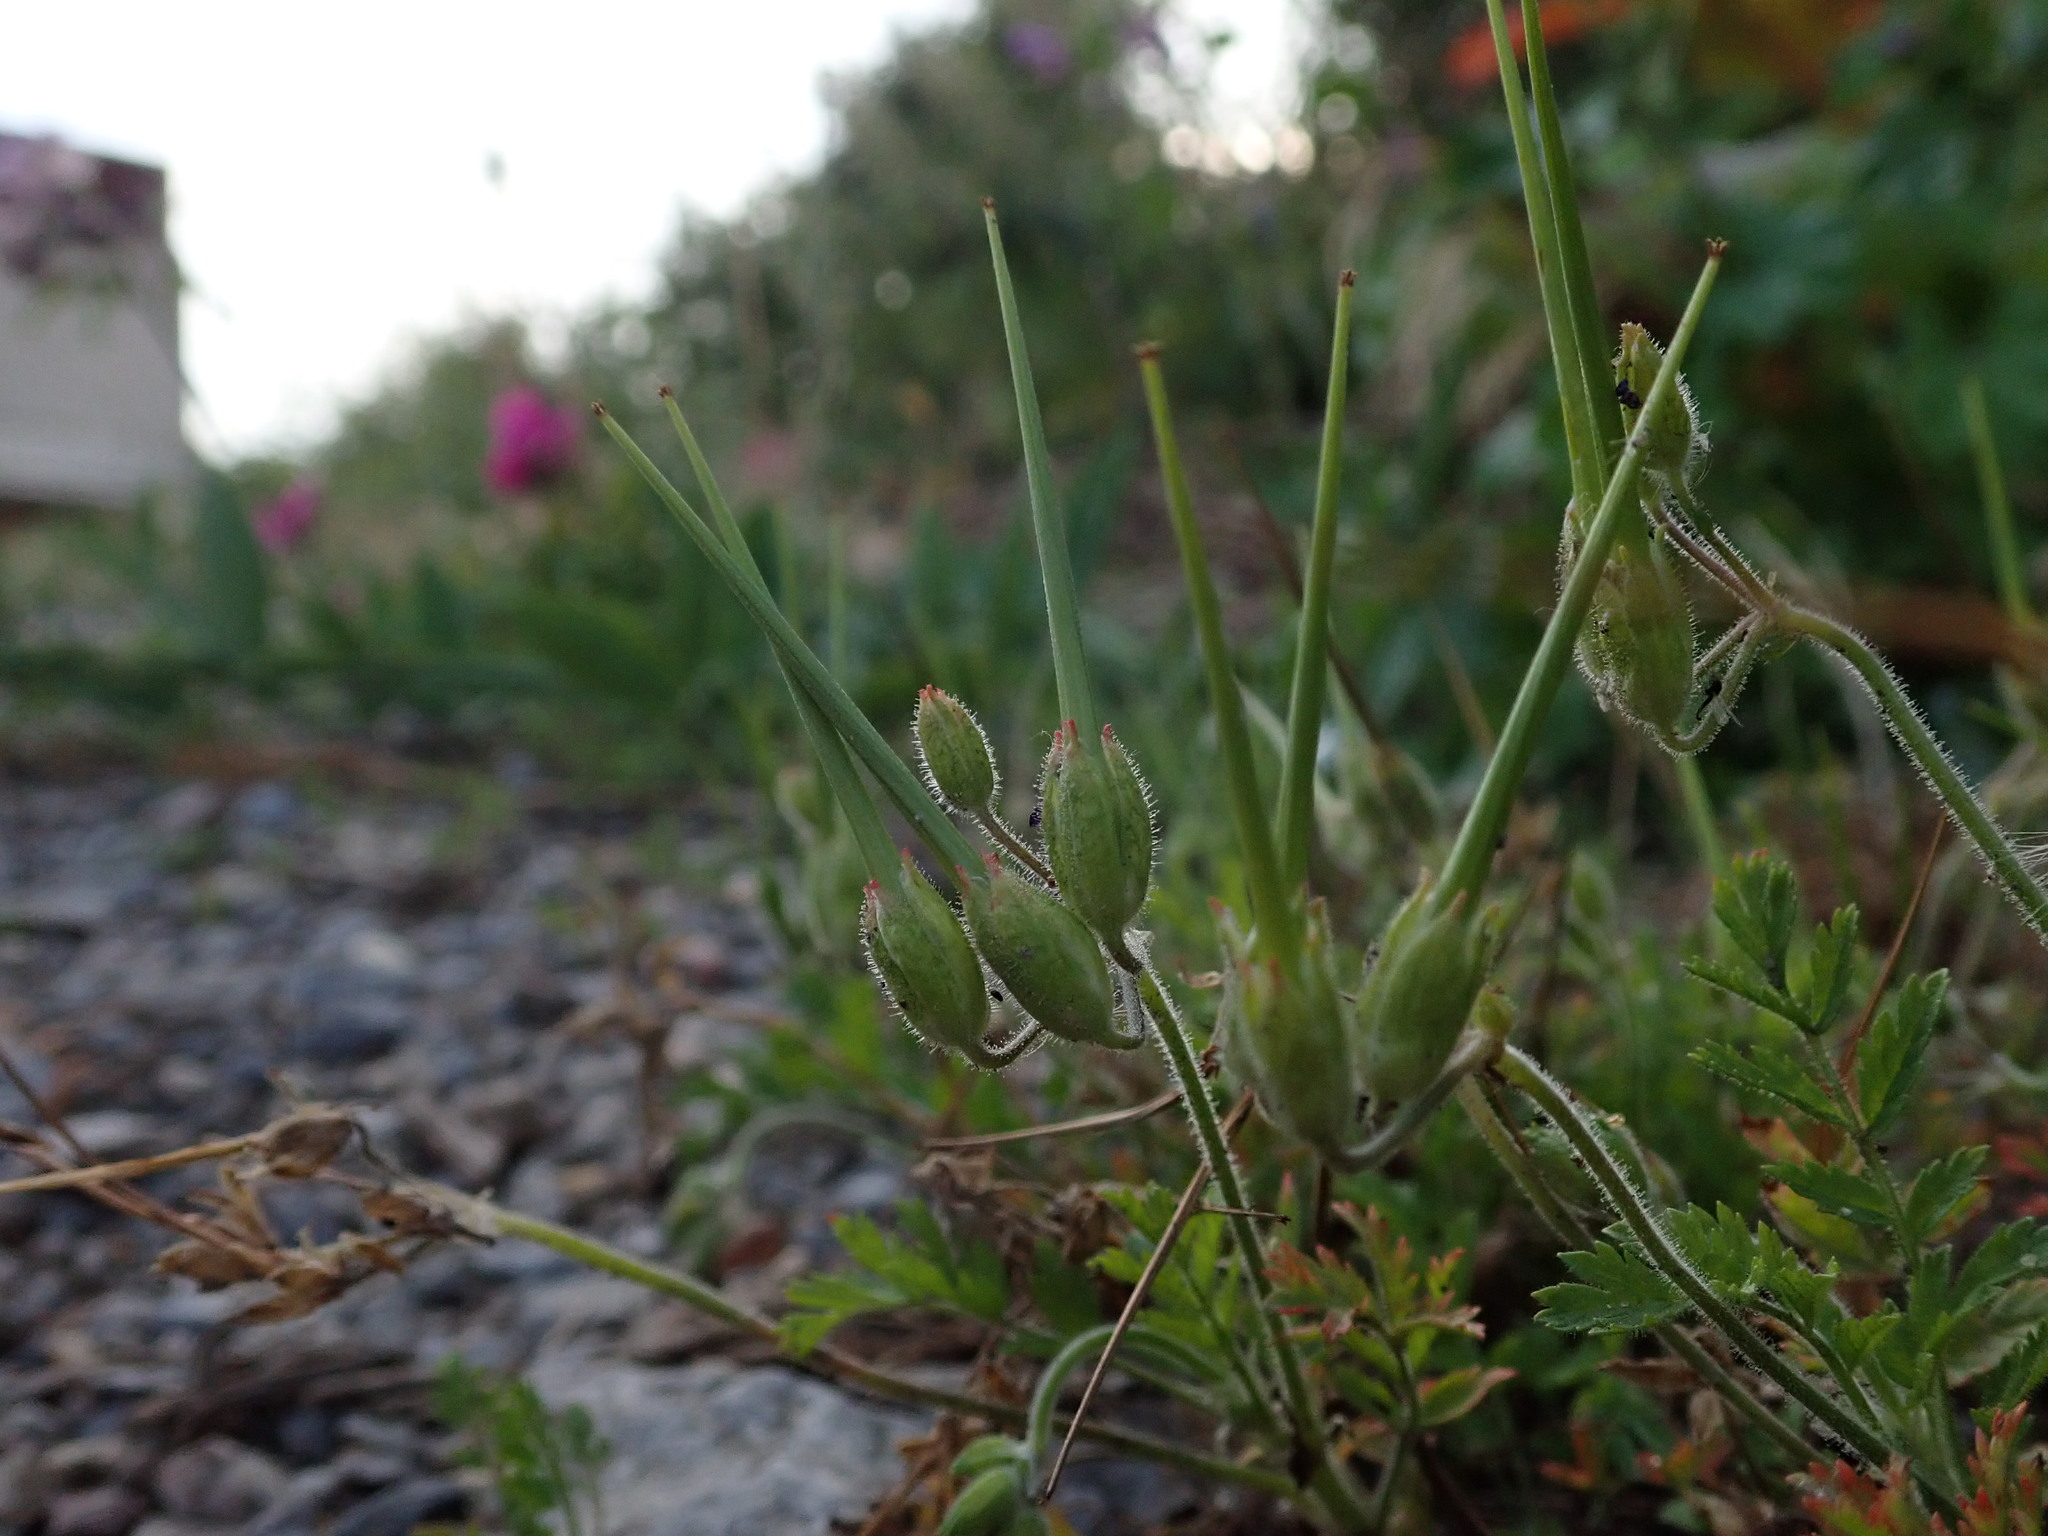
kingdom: Plantae
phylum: Tracheophyta
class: Magnoliopsida
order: Geraniales
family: Geraniaceae
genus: Erodium
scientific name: Erodium moschatum
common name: Musk stork's-bill
